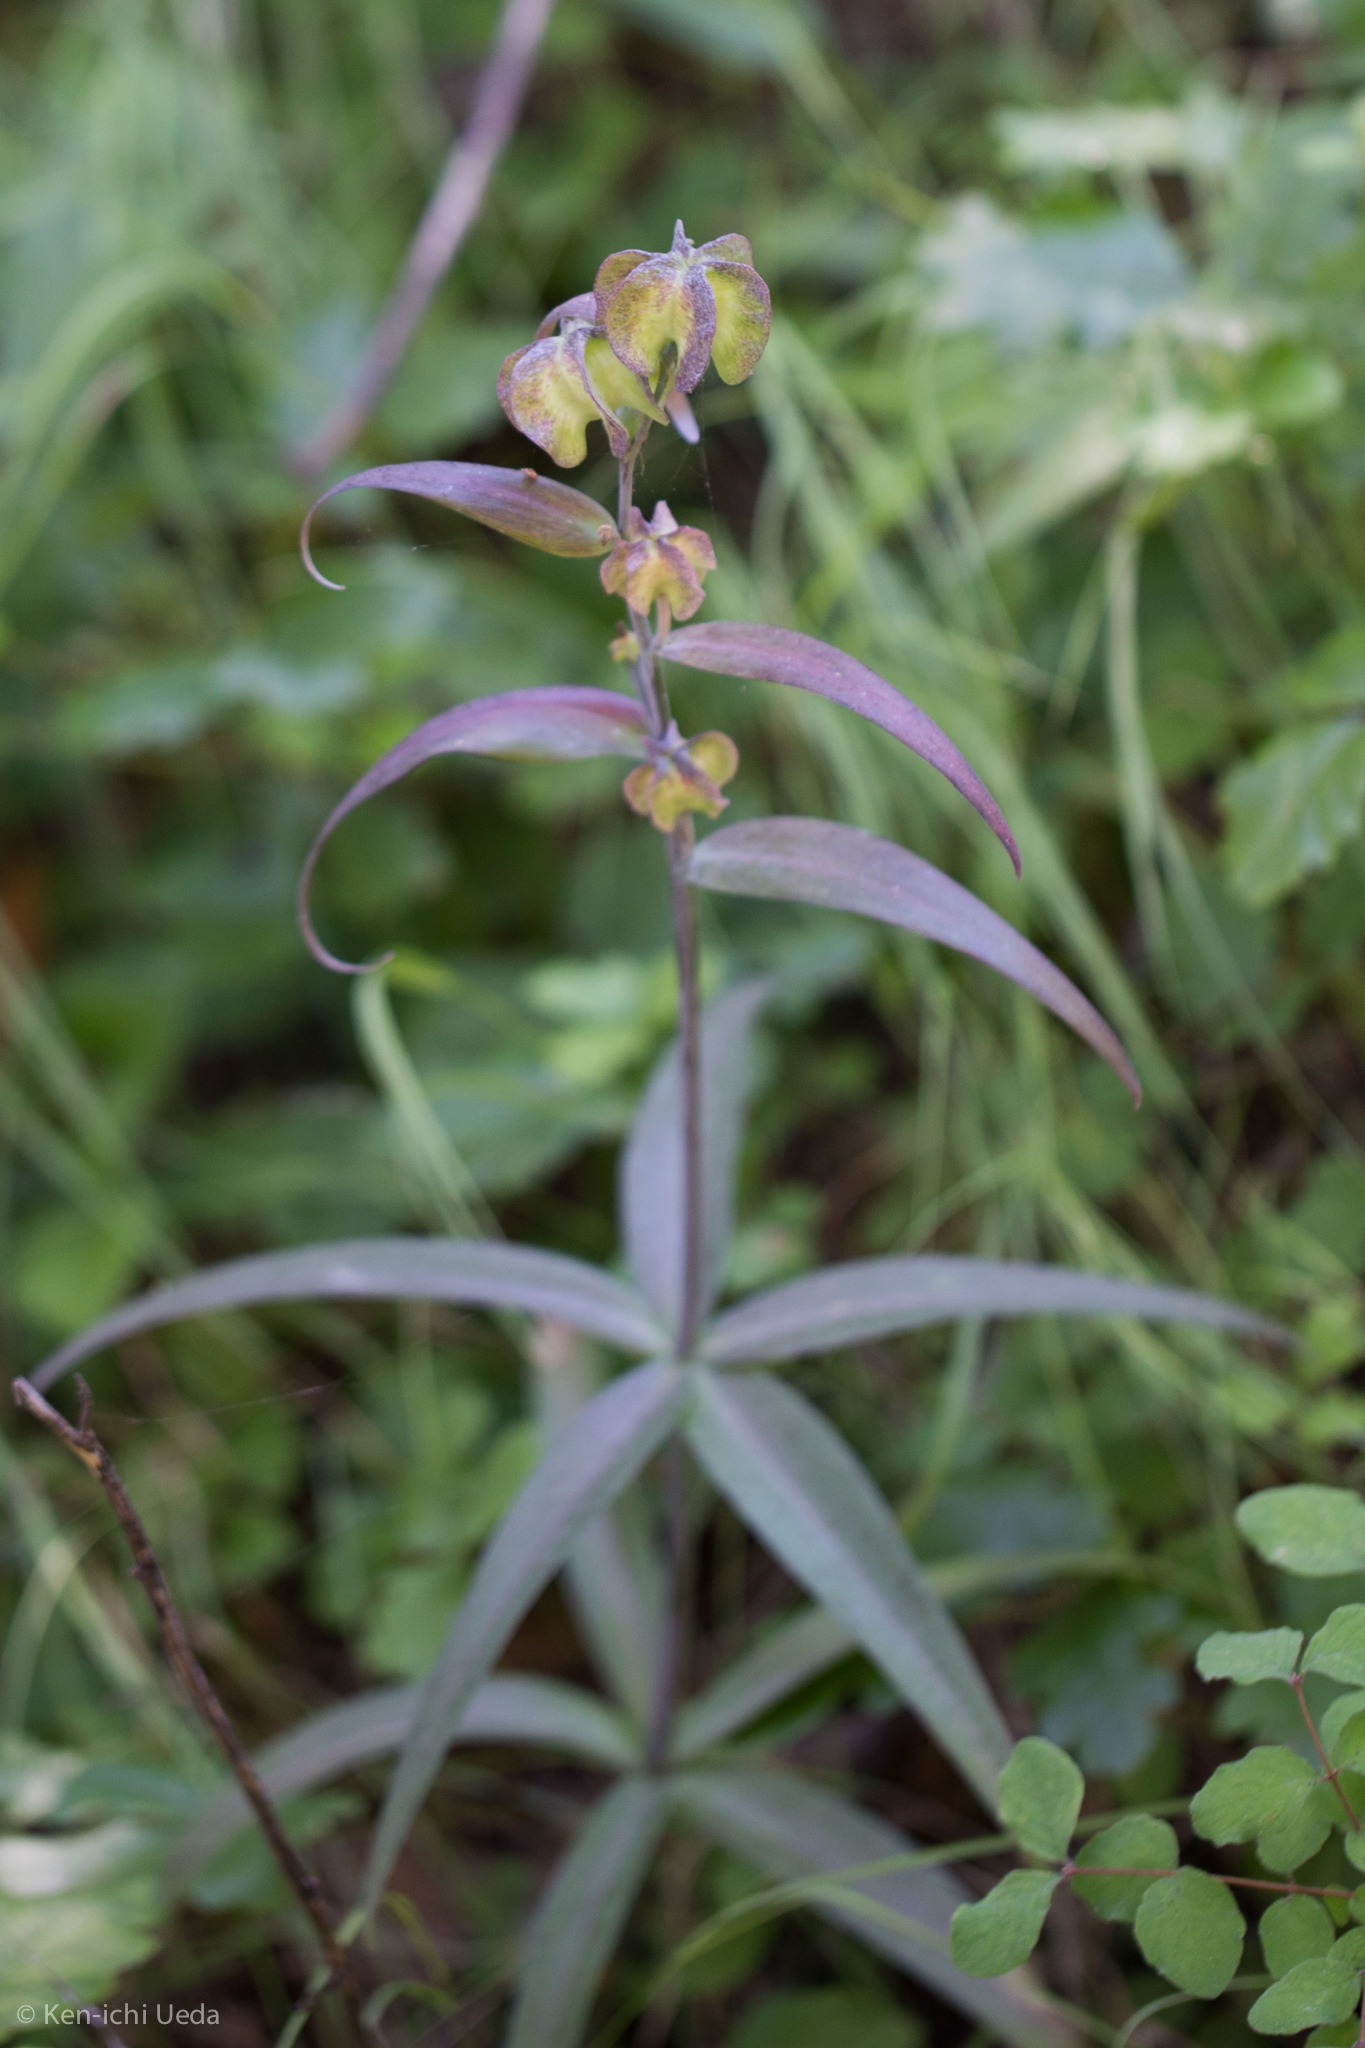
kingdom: Plantae
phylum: Tracheophyta
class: Liliopsida
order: Liliales
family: Liliaceae
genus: Fritillaria
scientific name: Fritillaria affinis
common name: Ojai fritillary
